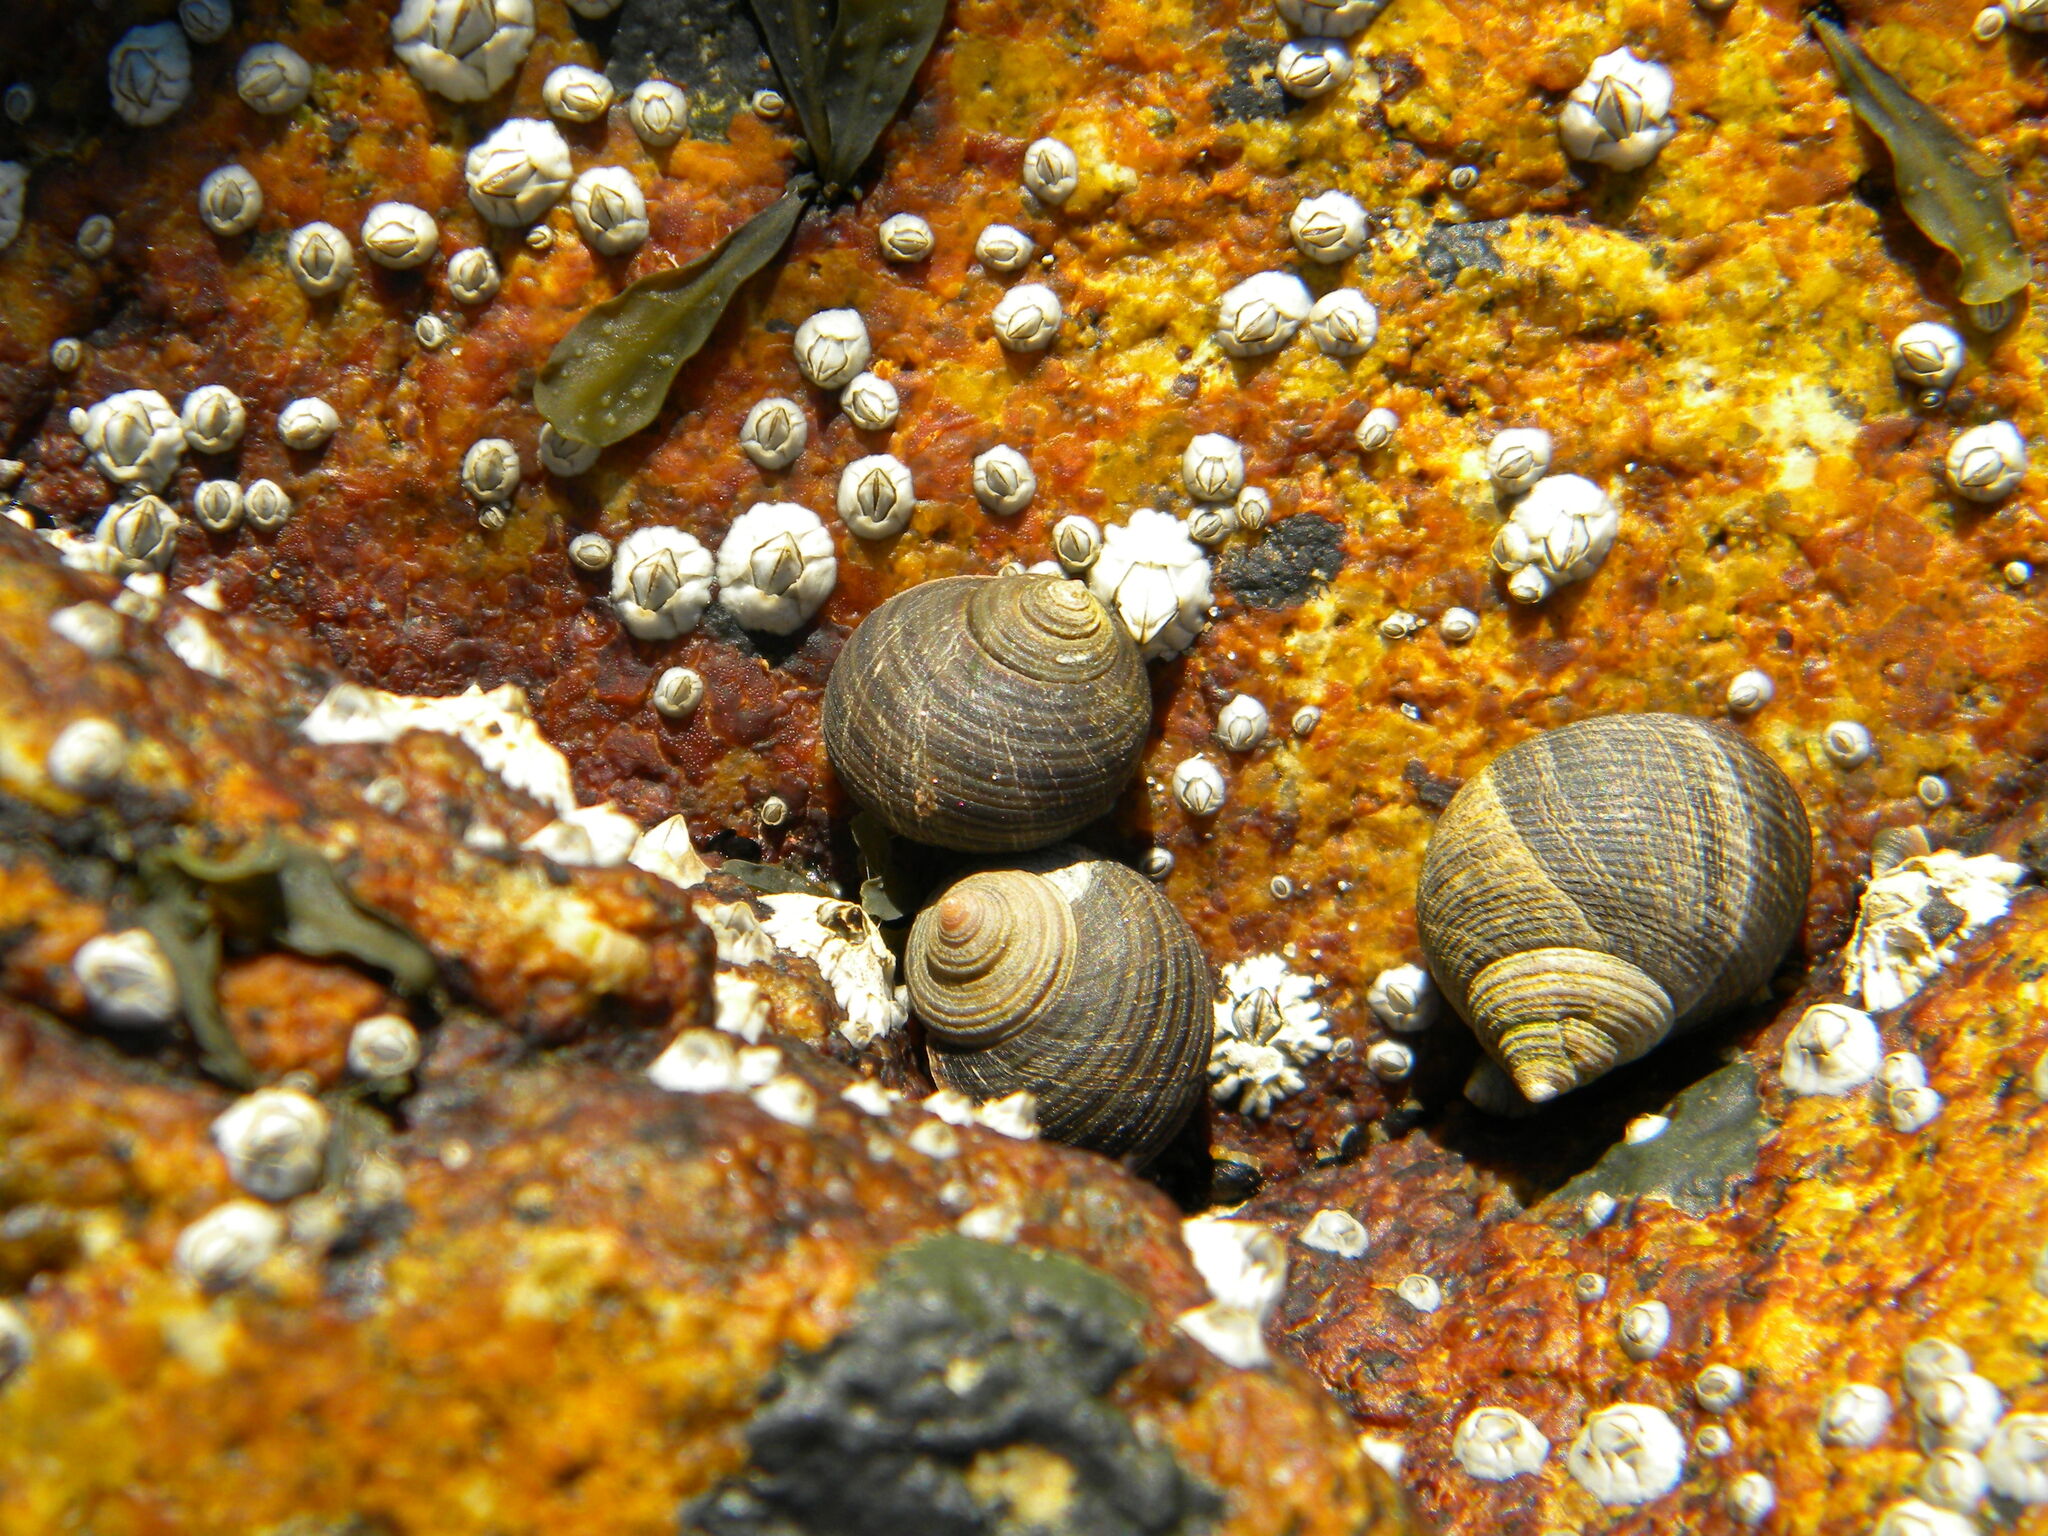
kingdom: Animalia
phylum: Mollusca
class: Gastropoda
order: Littorinimorpha
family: Littorinidae
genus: Littorina
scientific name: Littorina littorea
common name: Common periwinkle
